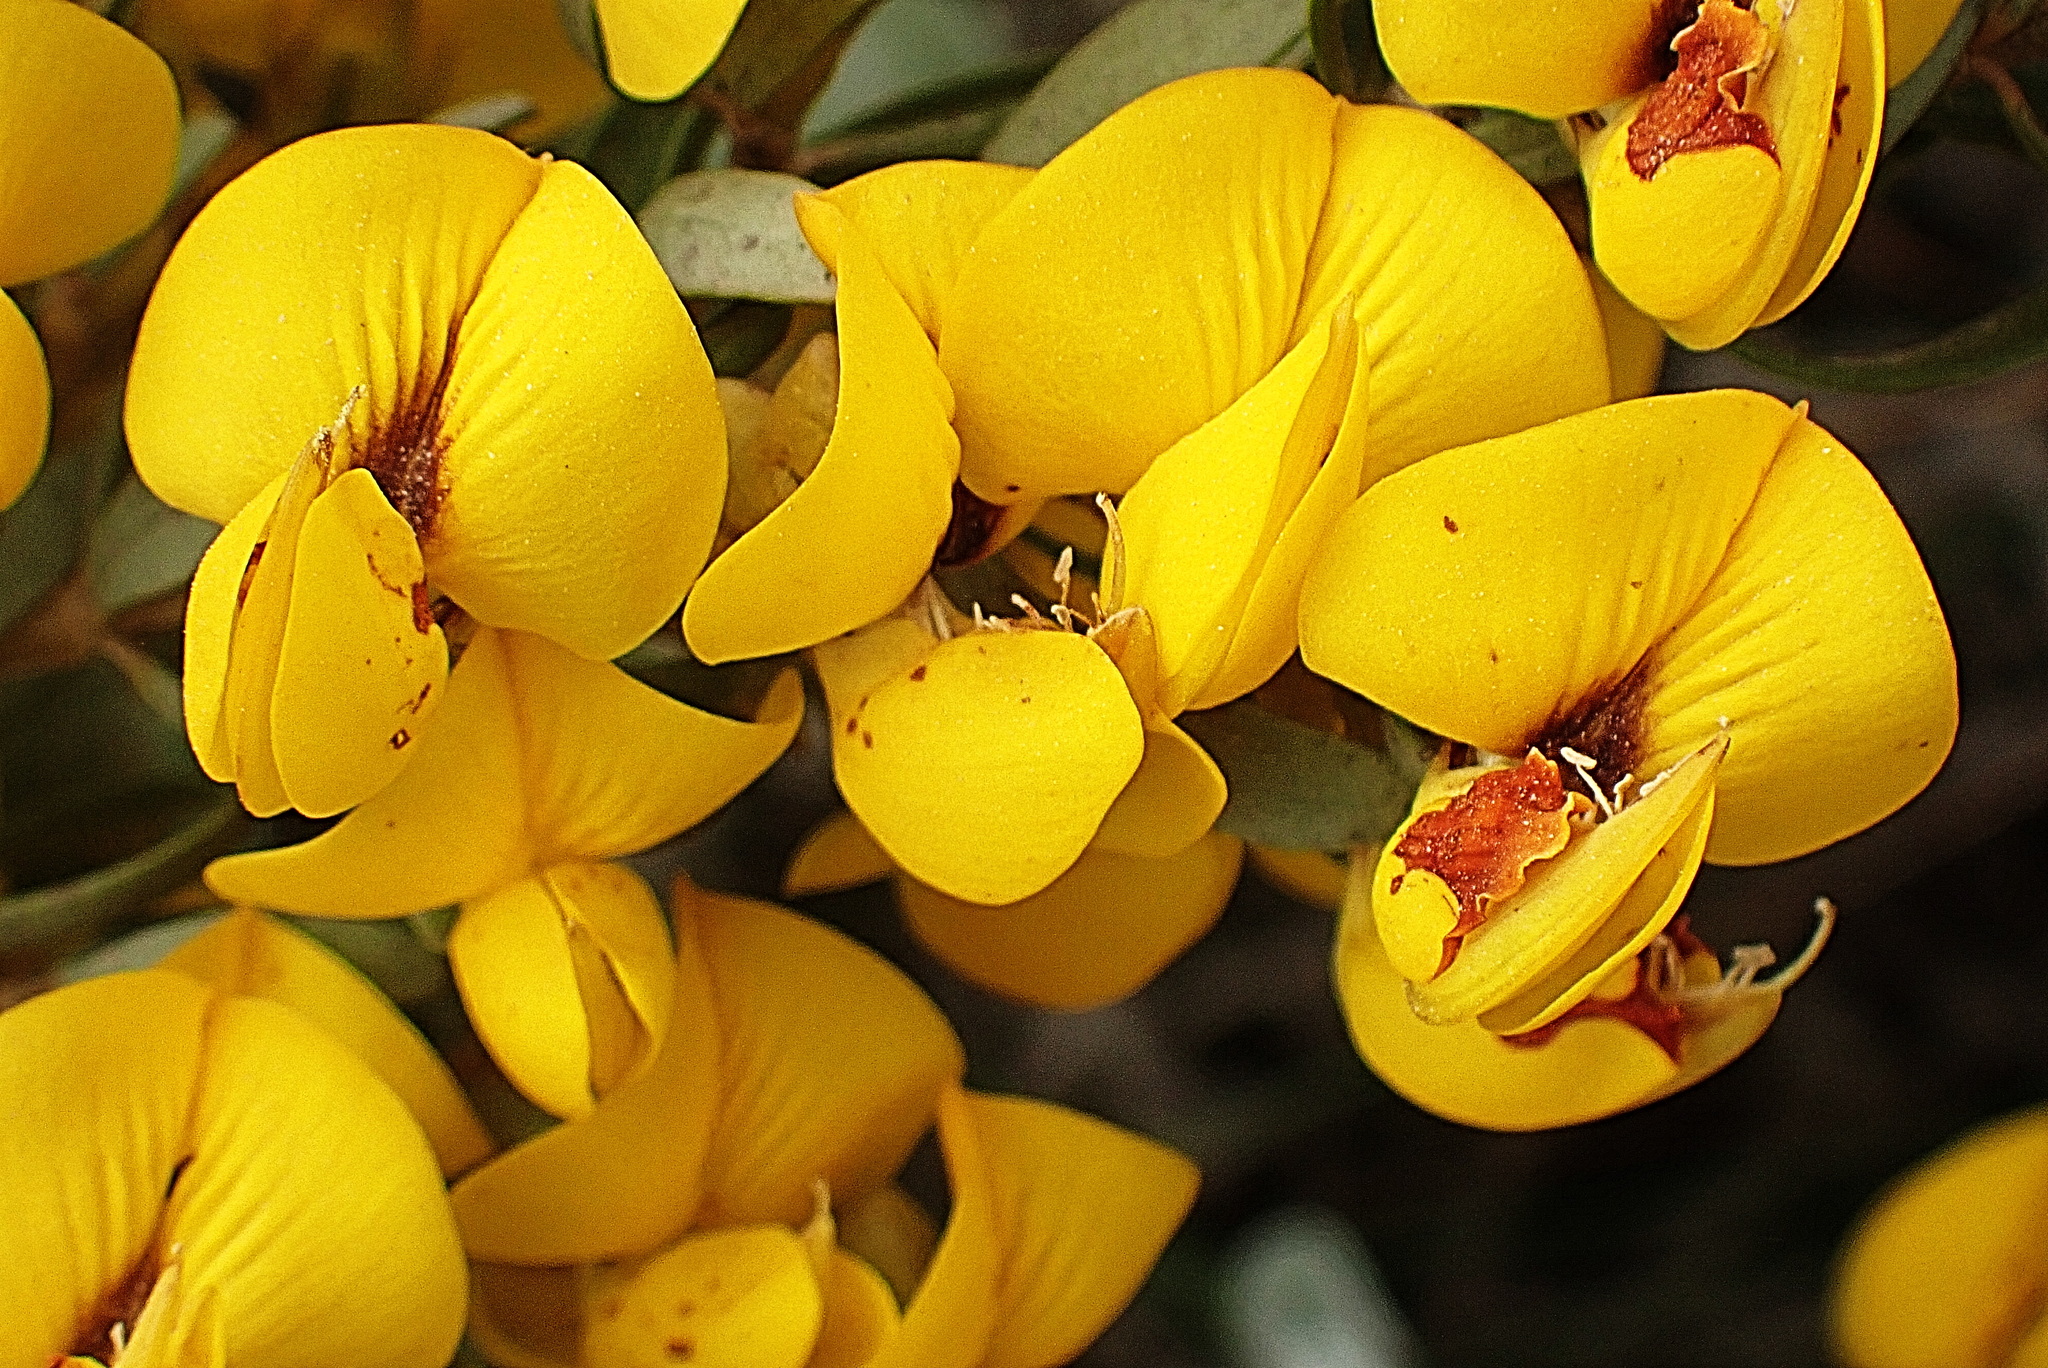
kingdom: Plantae
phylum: Tracheophyta
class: Magnoliopsida
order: Fabales
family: Fabaceae
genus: Cyclopia
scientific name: Cyclopia intermedia
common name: Mountain tea
